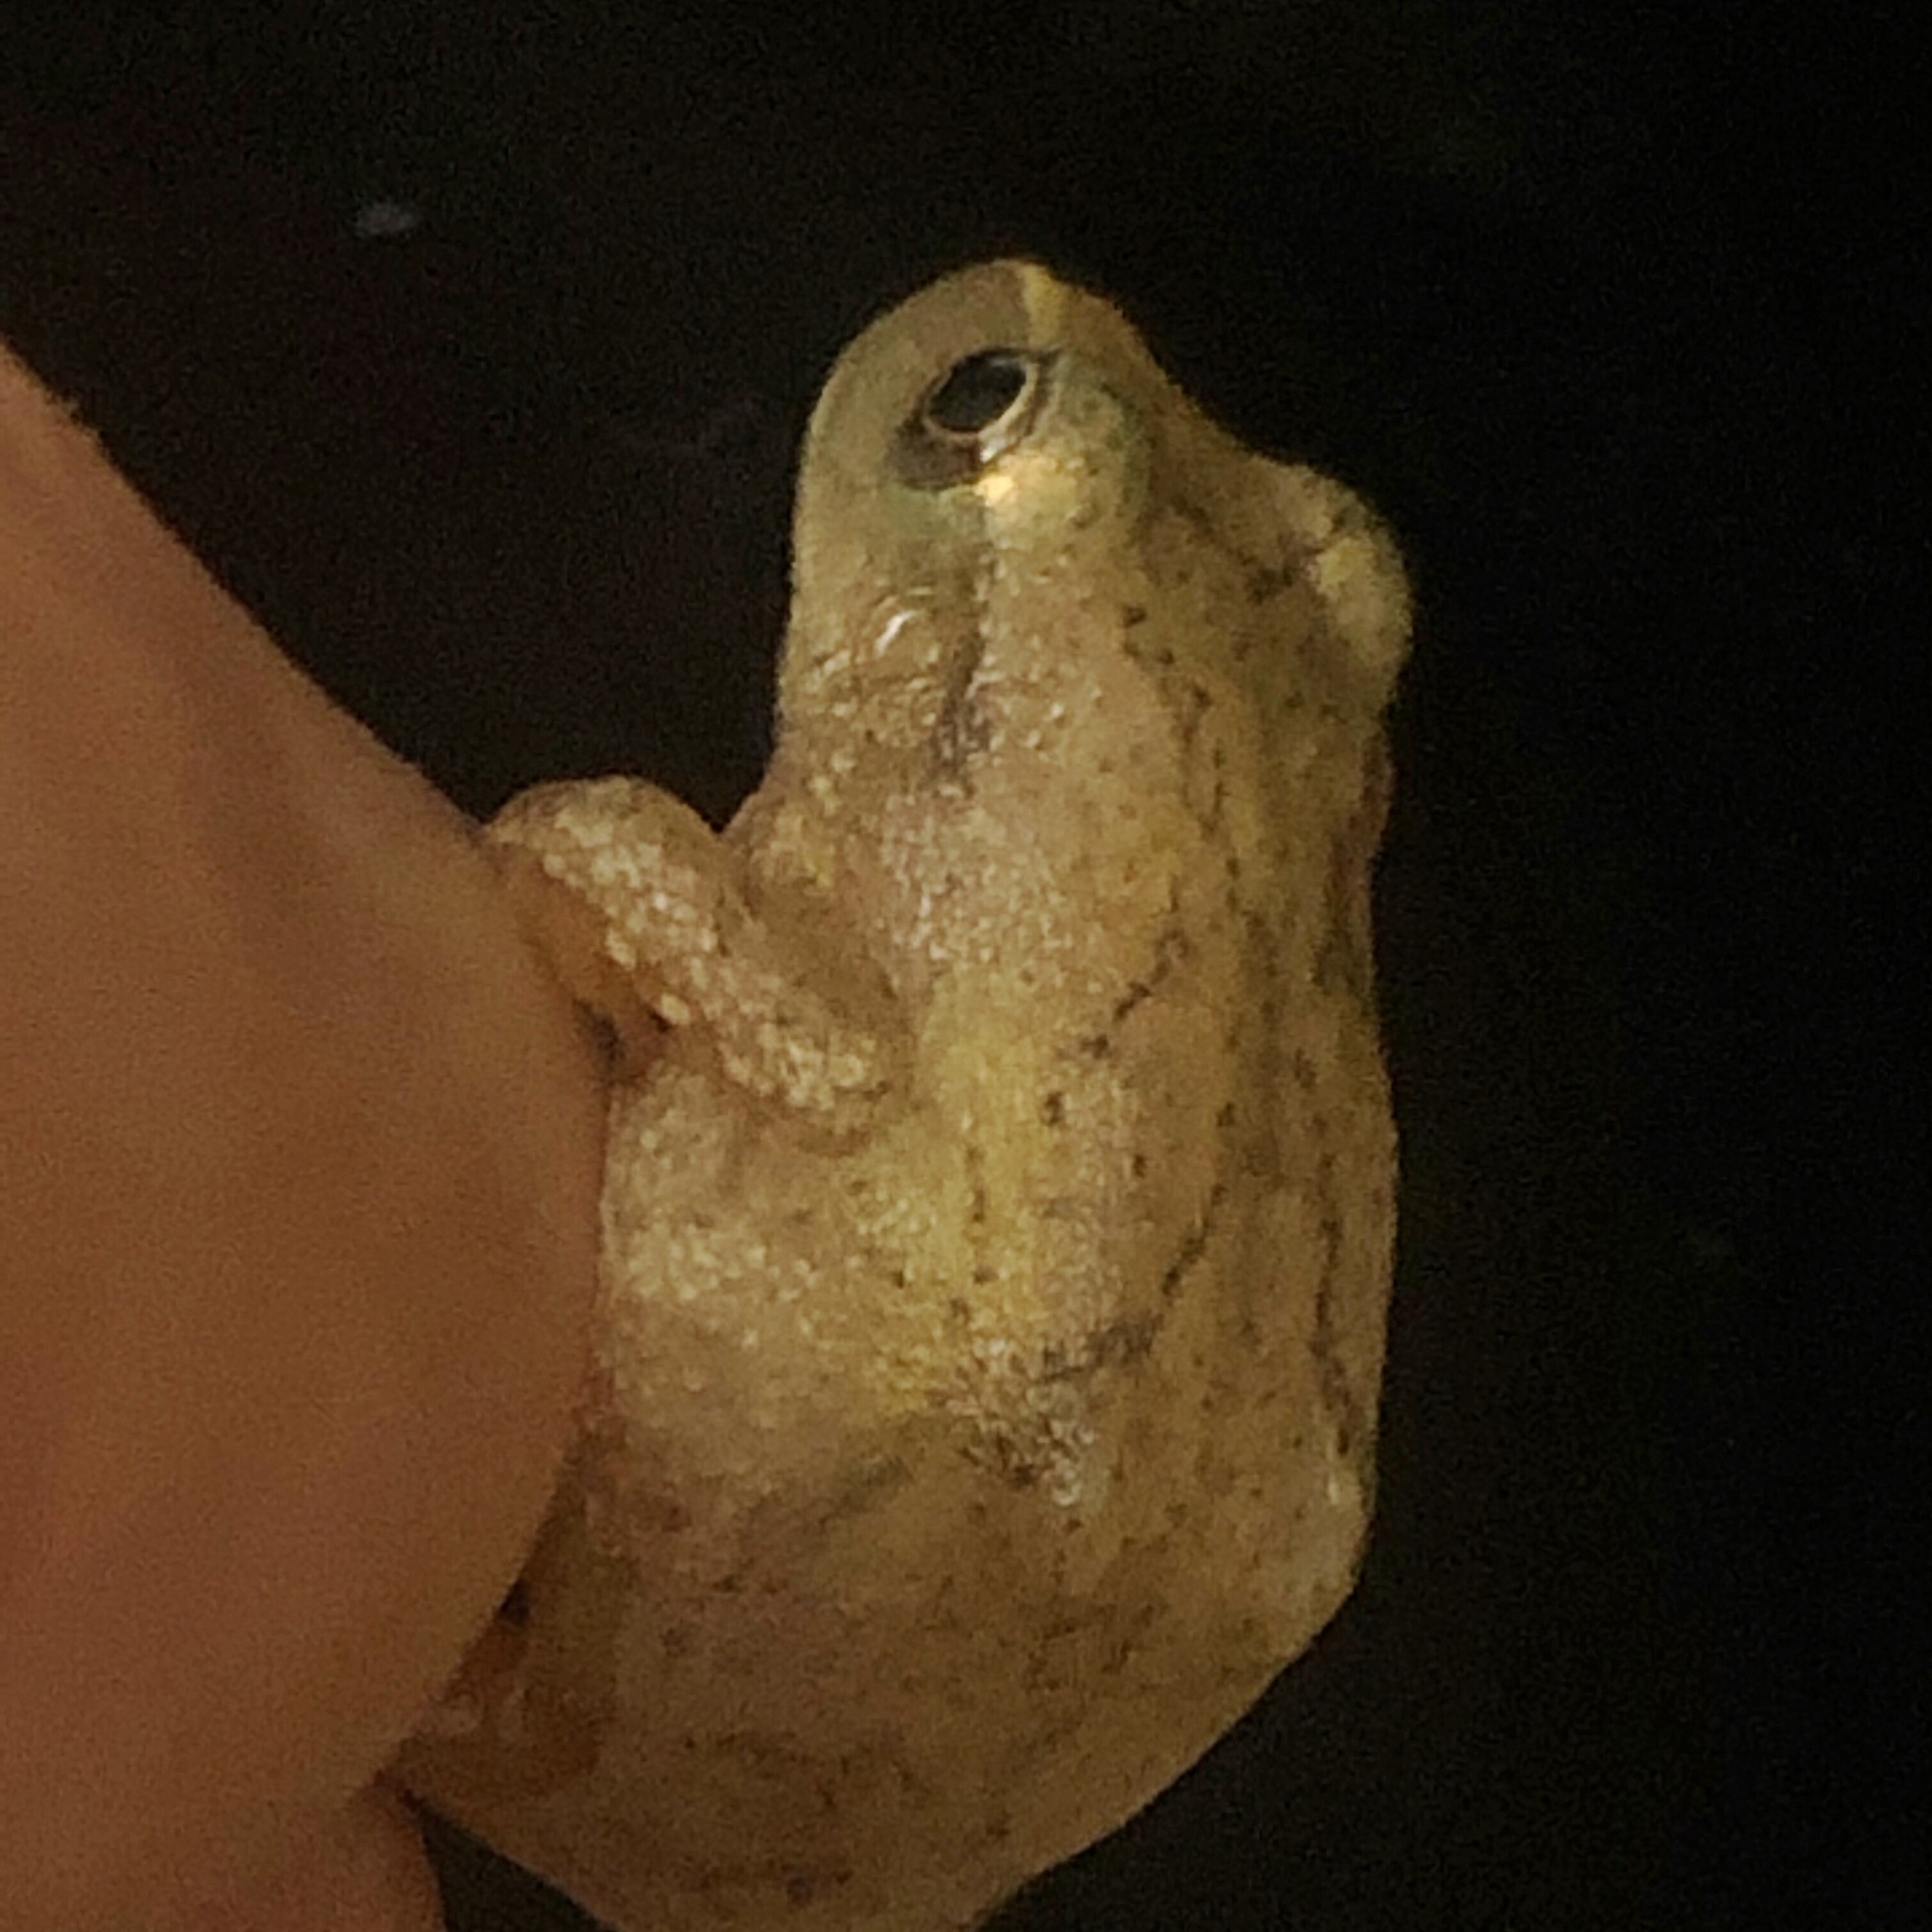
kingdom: Animalia
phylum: Chordata
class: Amphibia
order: Anura
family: Hylidae
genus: Pseudacris
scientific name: Pseudacris crucifer
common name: Spring peeper
